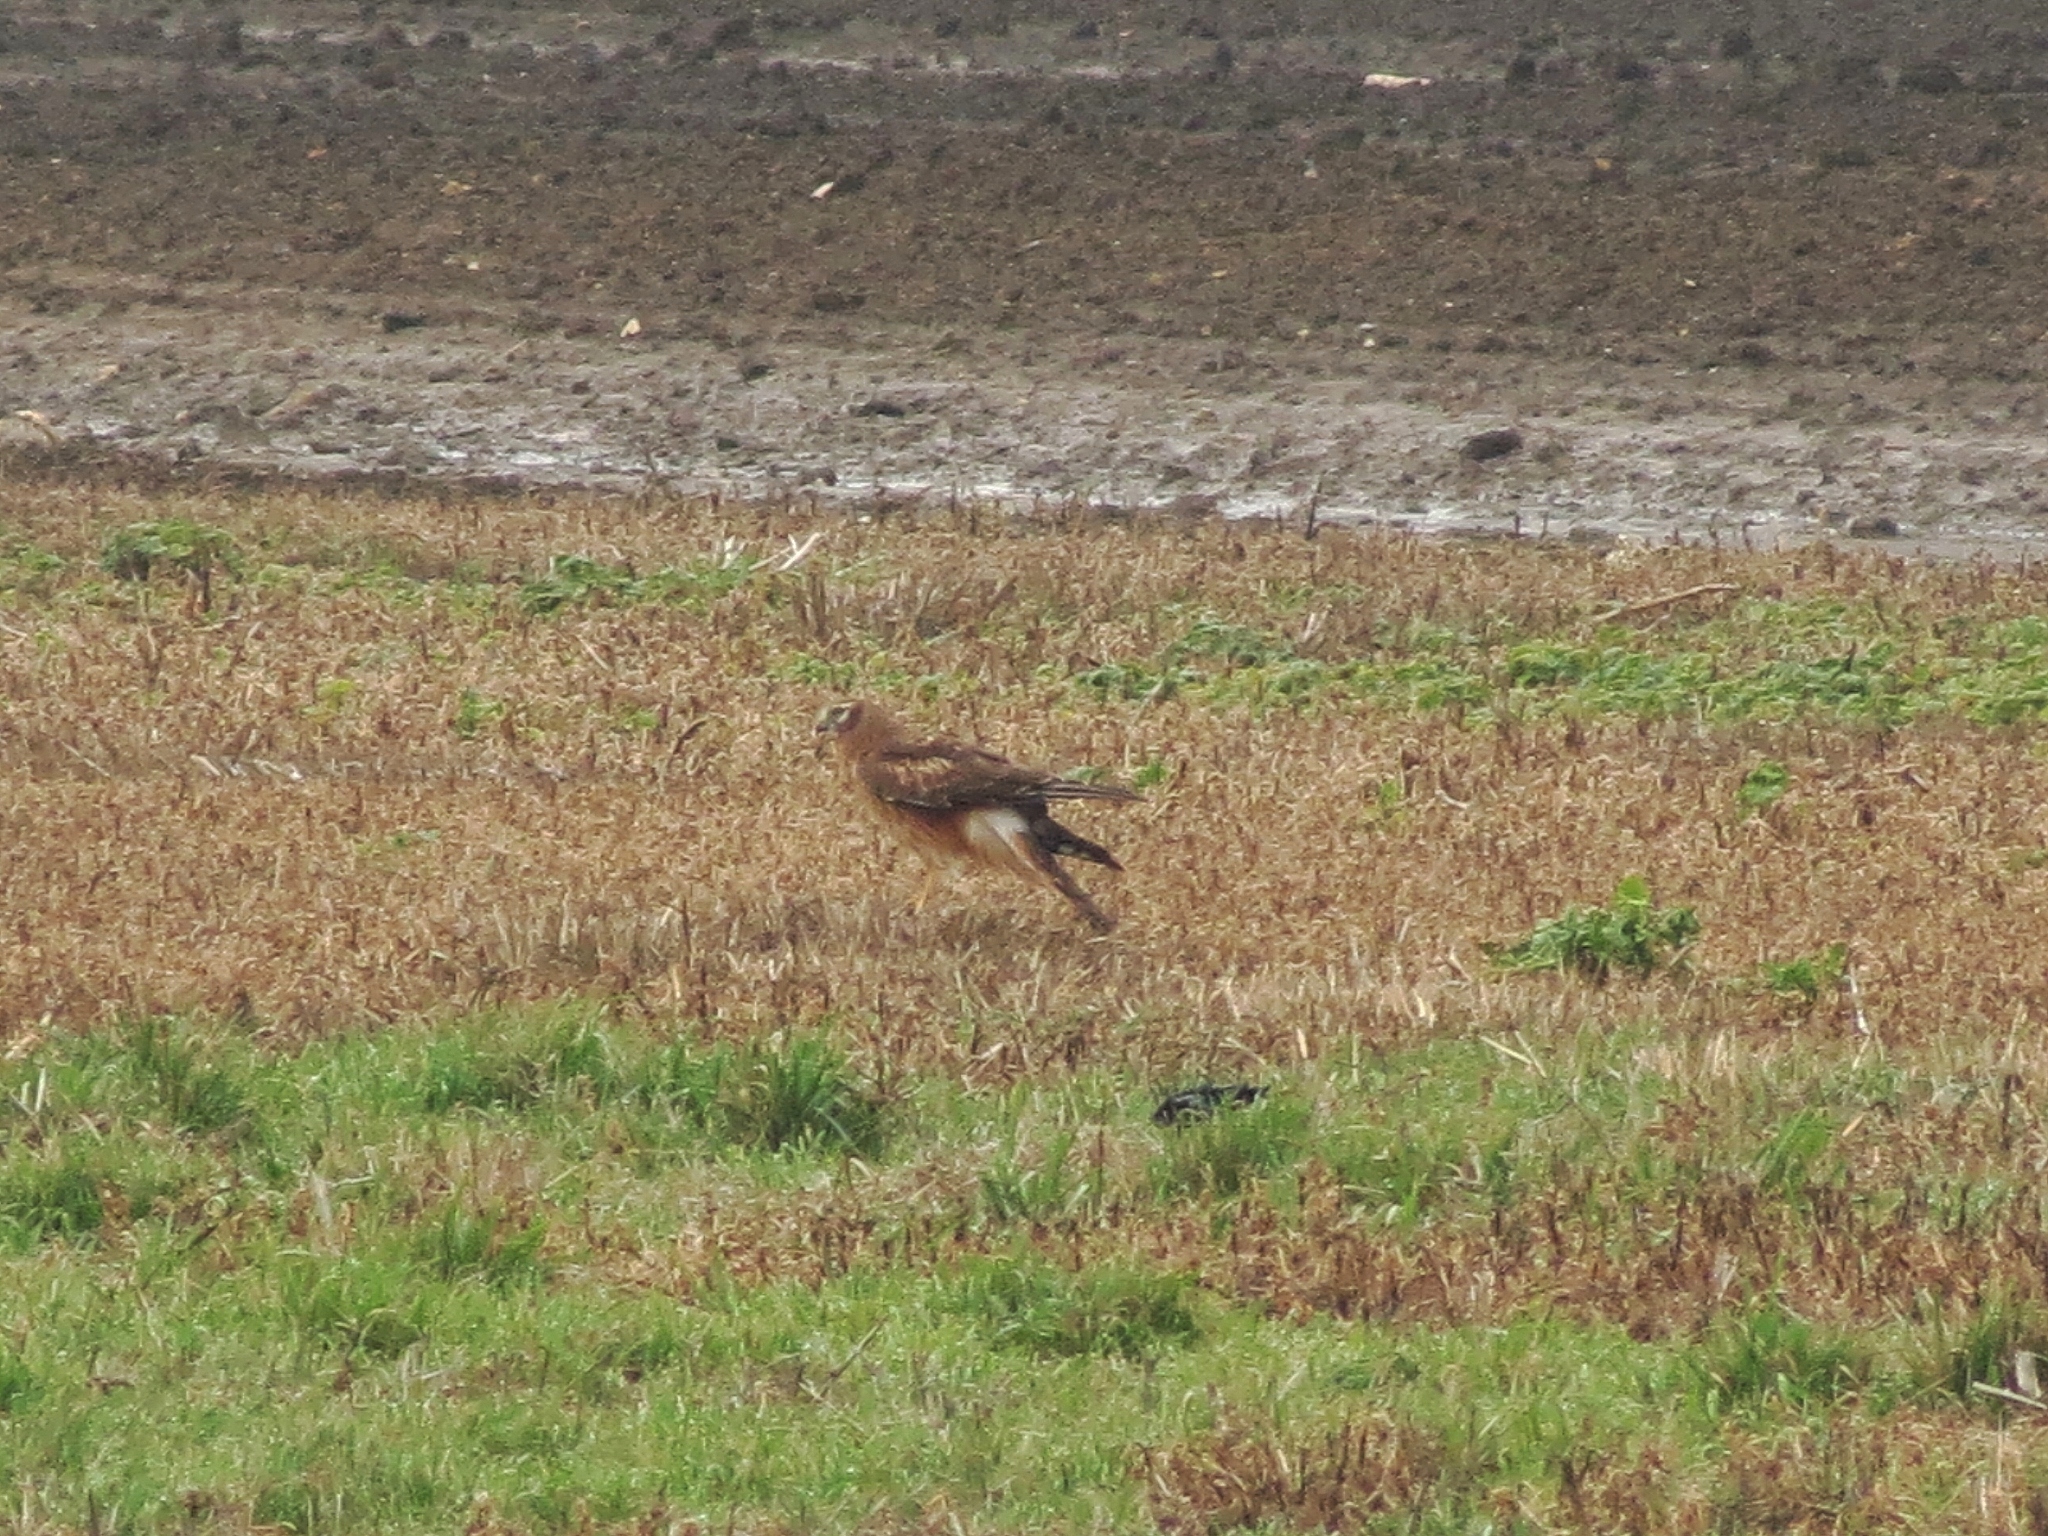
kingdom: Animalia
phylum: Chordata
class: Aves
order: Accipitriformes
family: Accipitridae
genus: Circus
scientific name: Circus cyaneus
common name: Hen harrier
